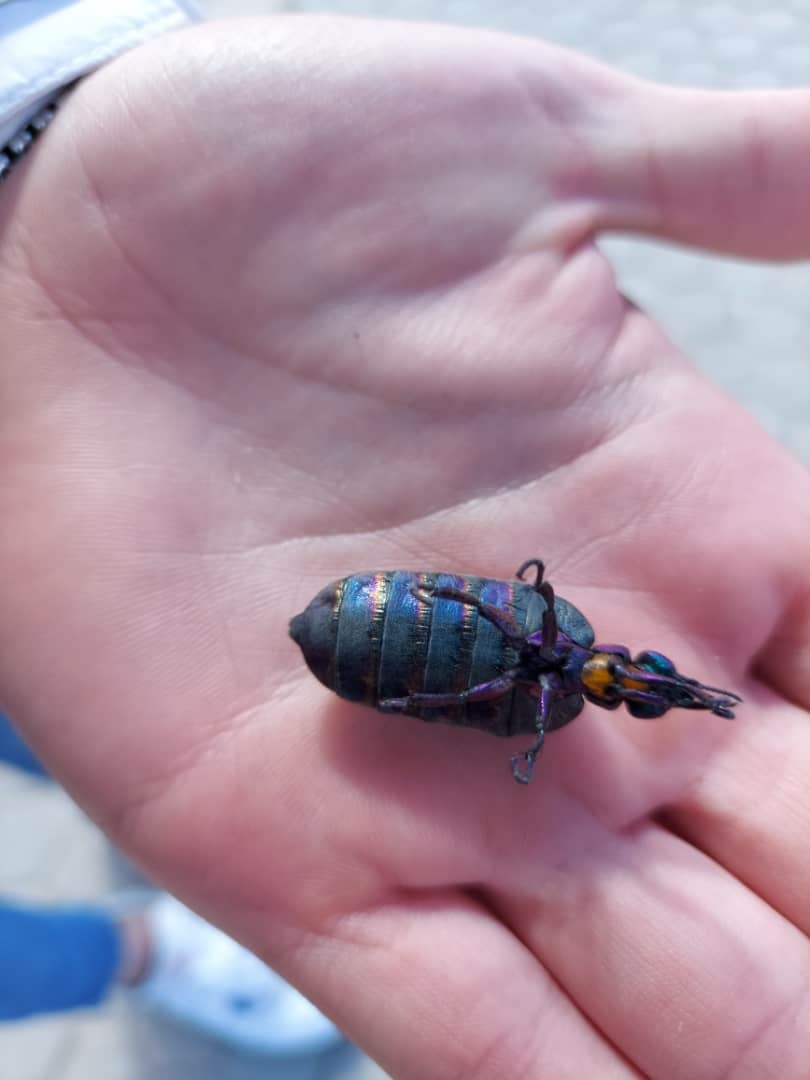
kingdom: Animalia
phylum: Arthropoda
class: Insecta
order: Coleoptera
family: Meloidae
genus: Meloe
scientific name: Meloe variegatus
